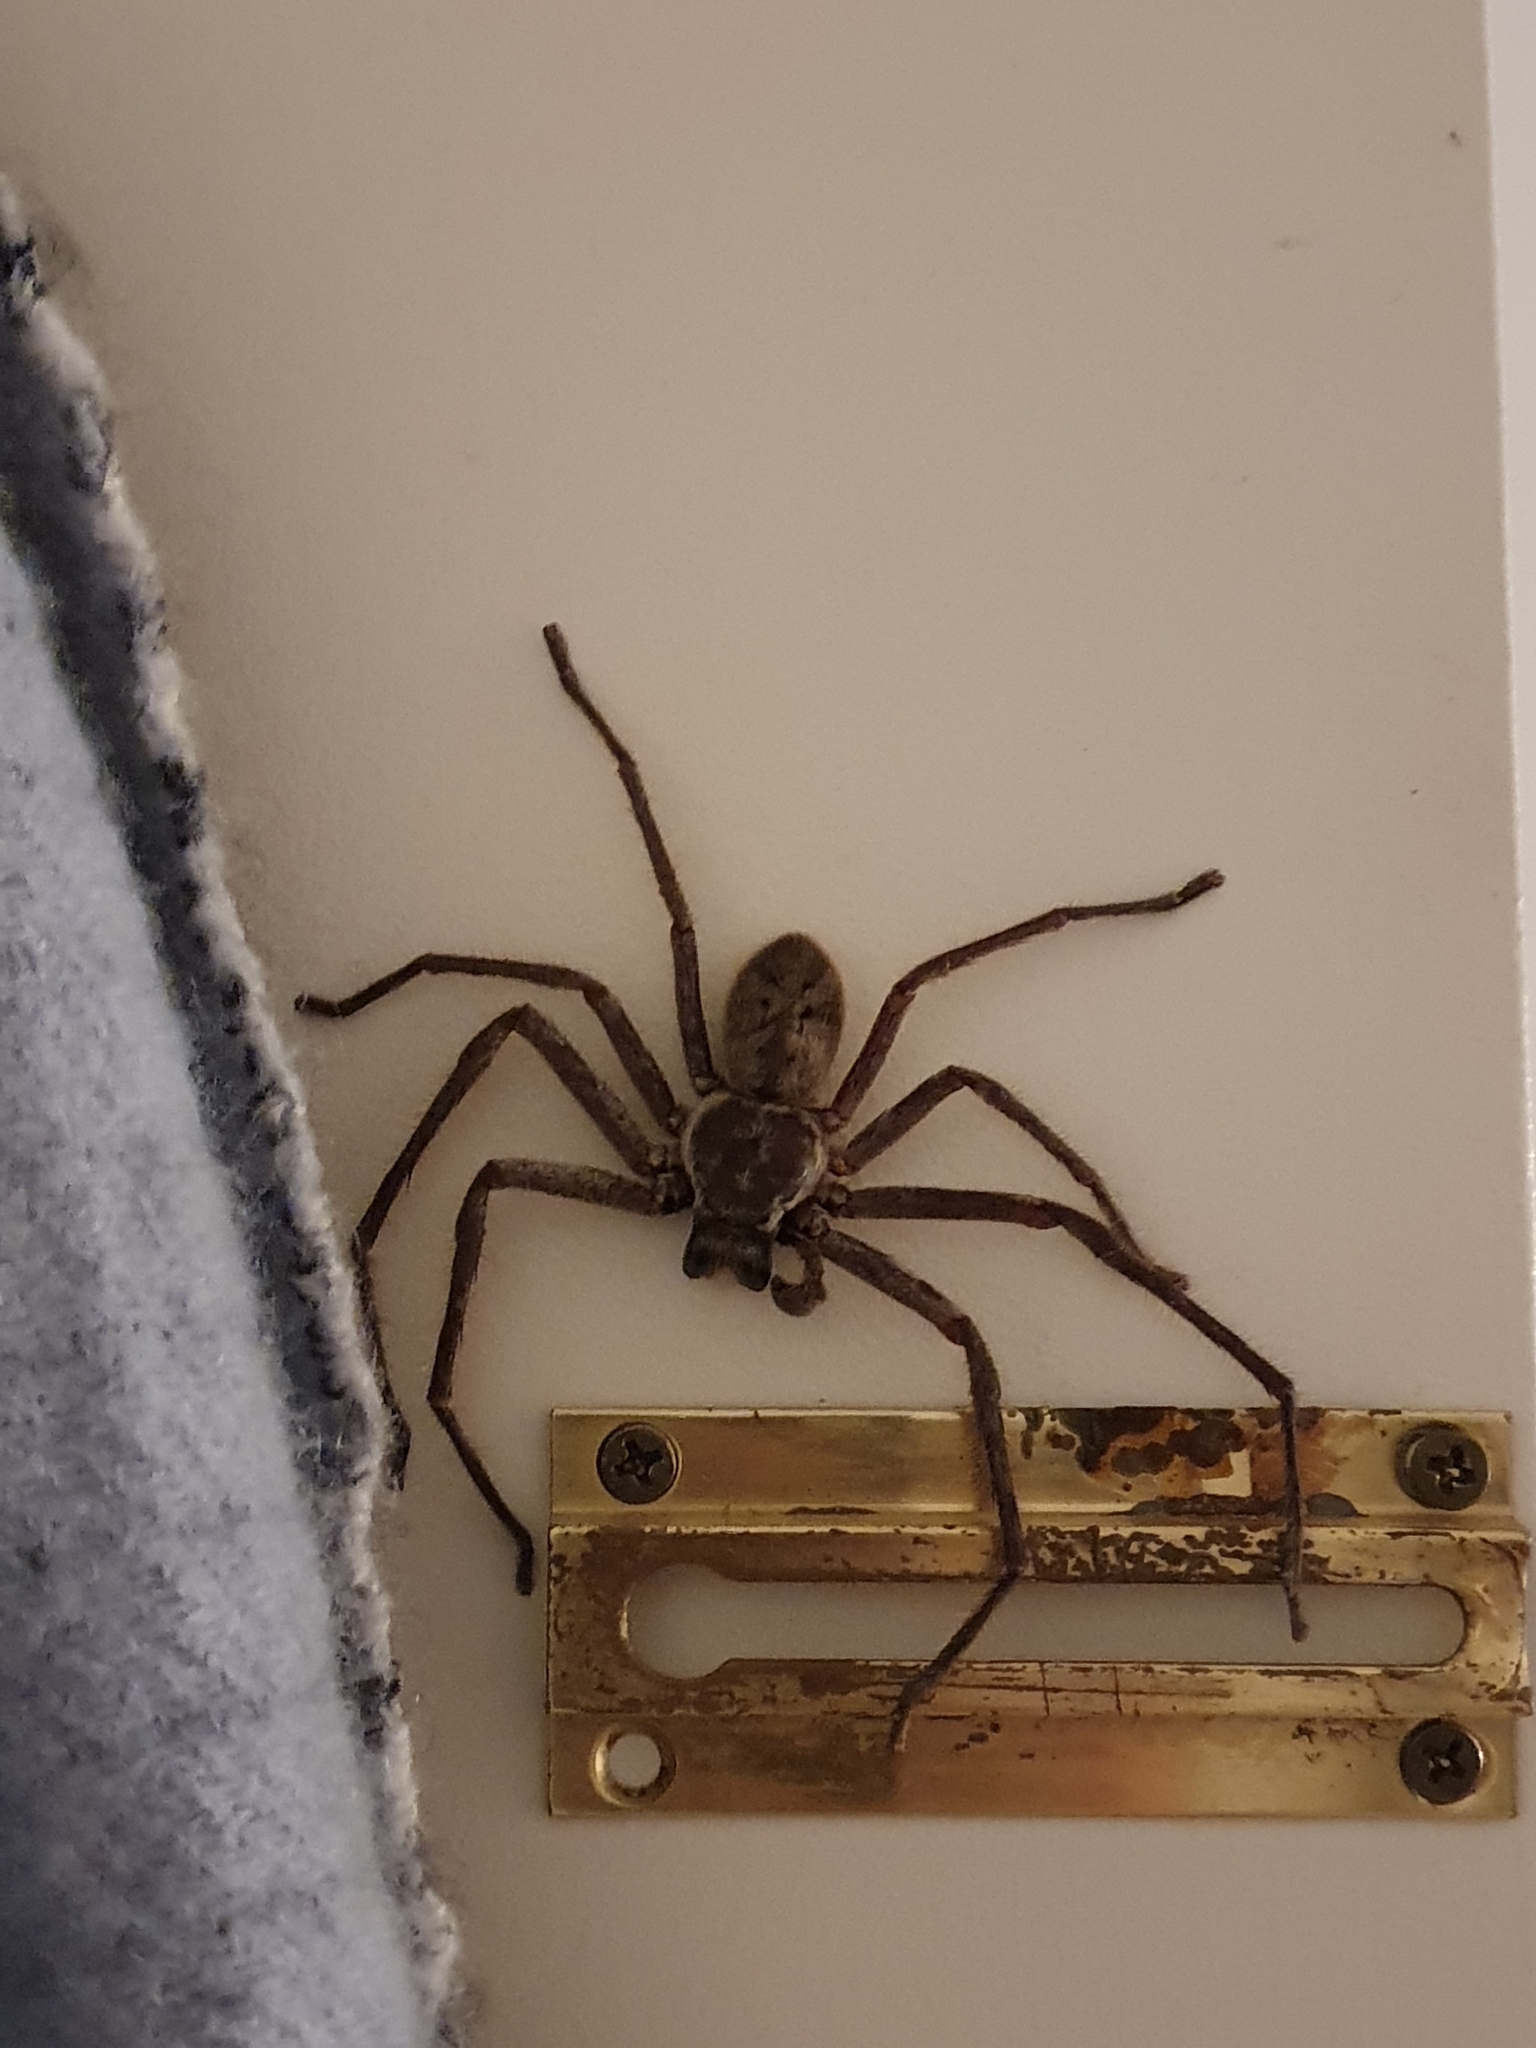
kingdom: Animalia
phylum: Arthropoda
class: Arachnida
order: Araneae
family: Sparassidae
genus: Isopeda
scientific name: Isopeda woodwardi
